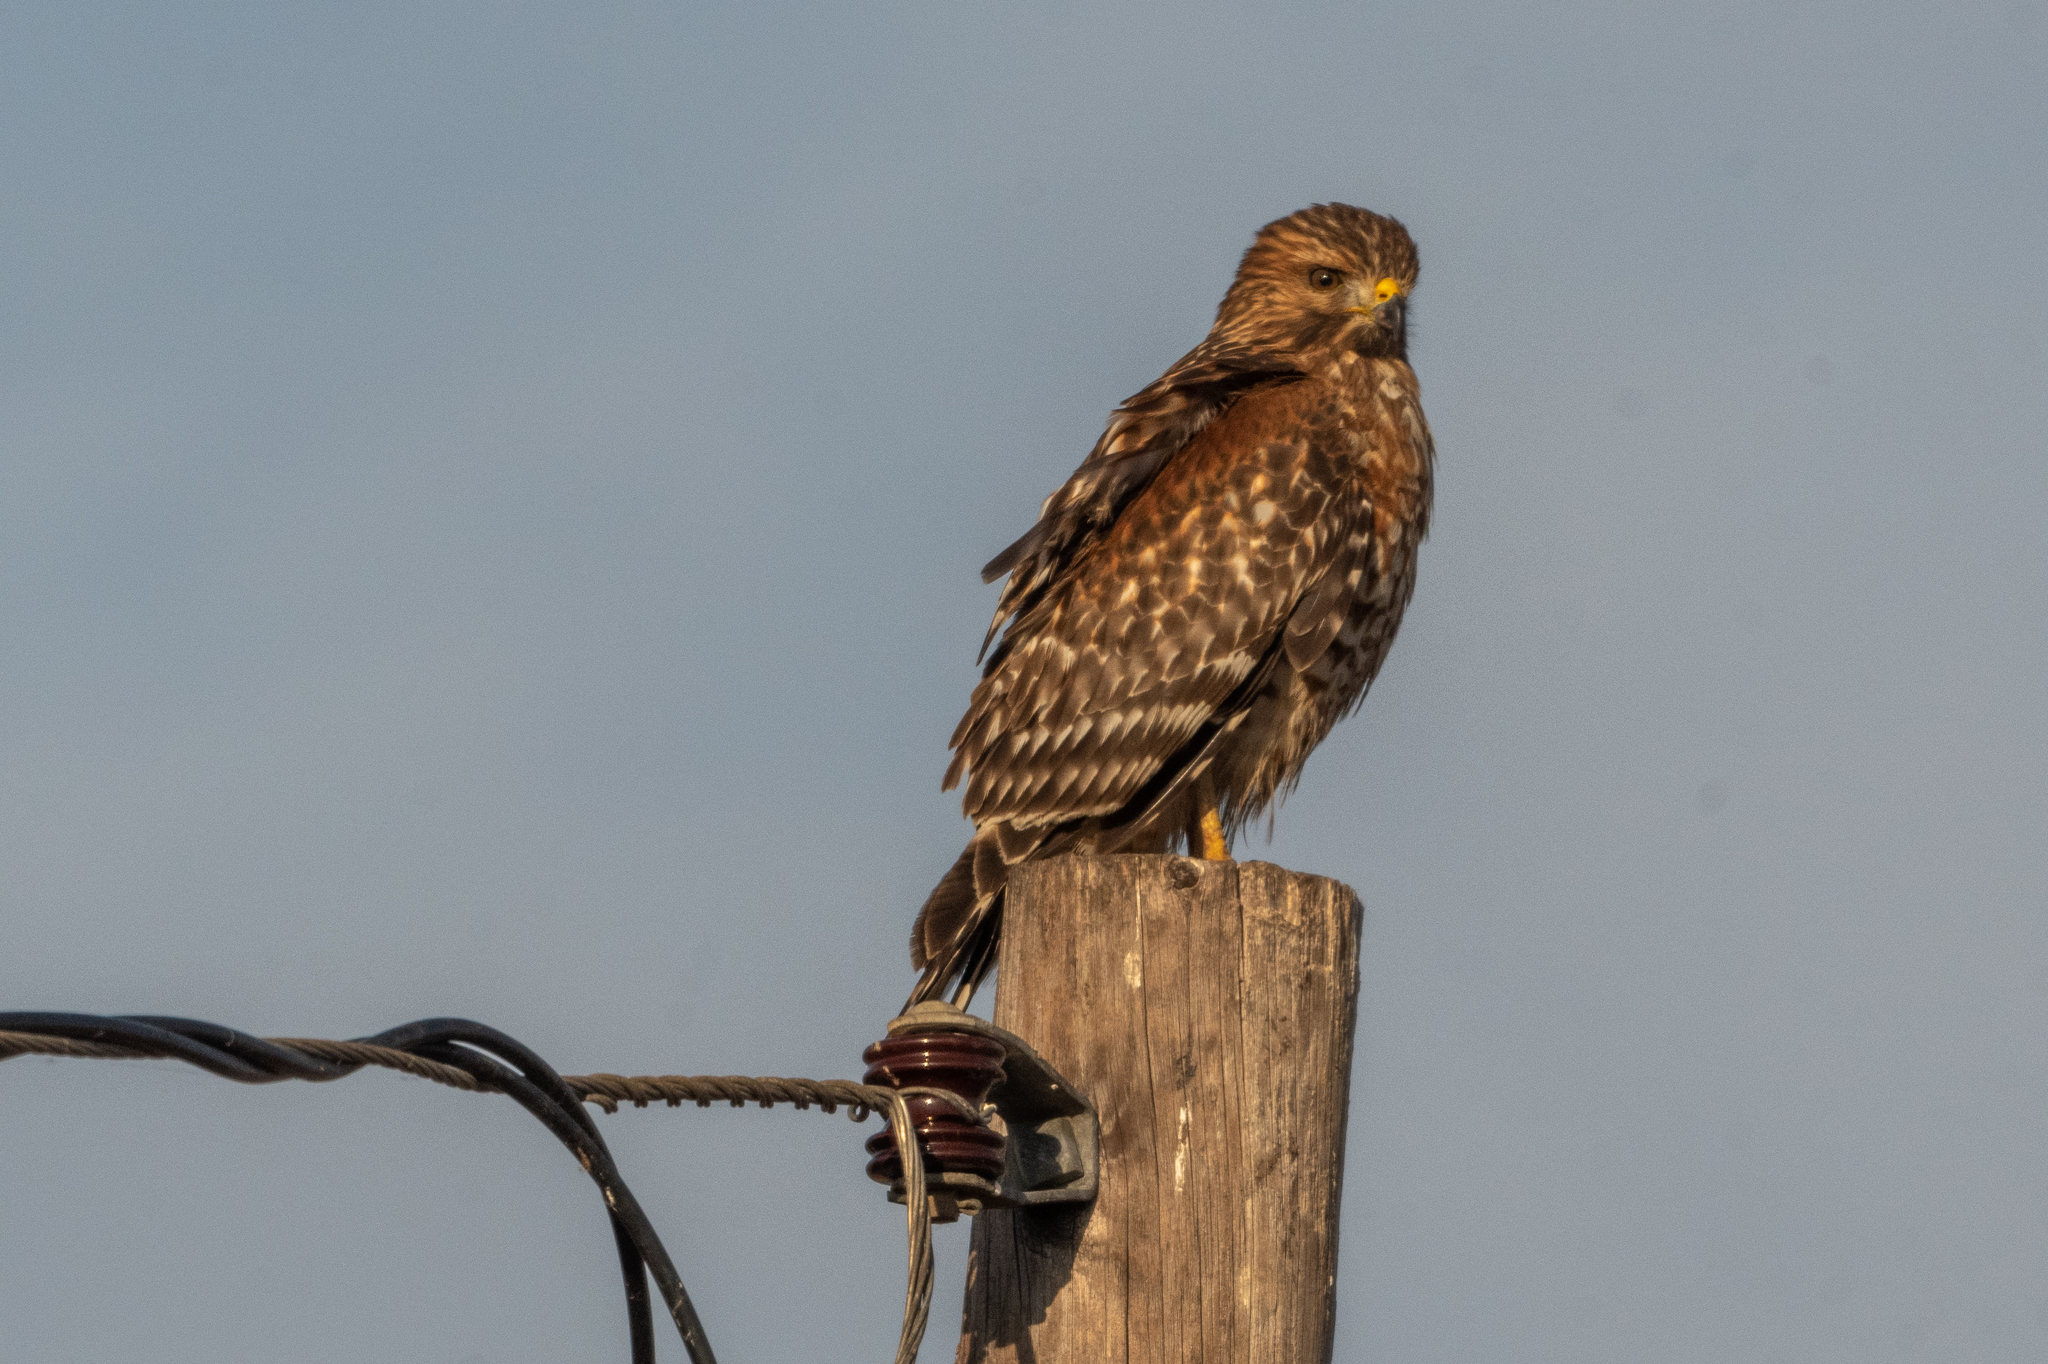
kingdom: Animalia
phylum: Chordata
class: Aves
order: Accipitriformes
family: Accipitridae
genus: Buteo
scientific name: Buteo lineatus
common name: Red-shouldered hawk
